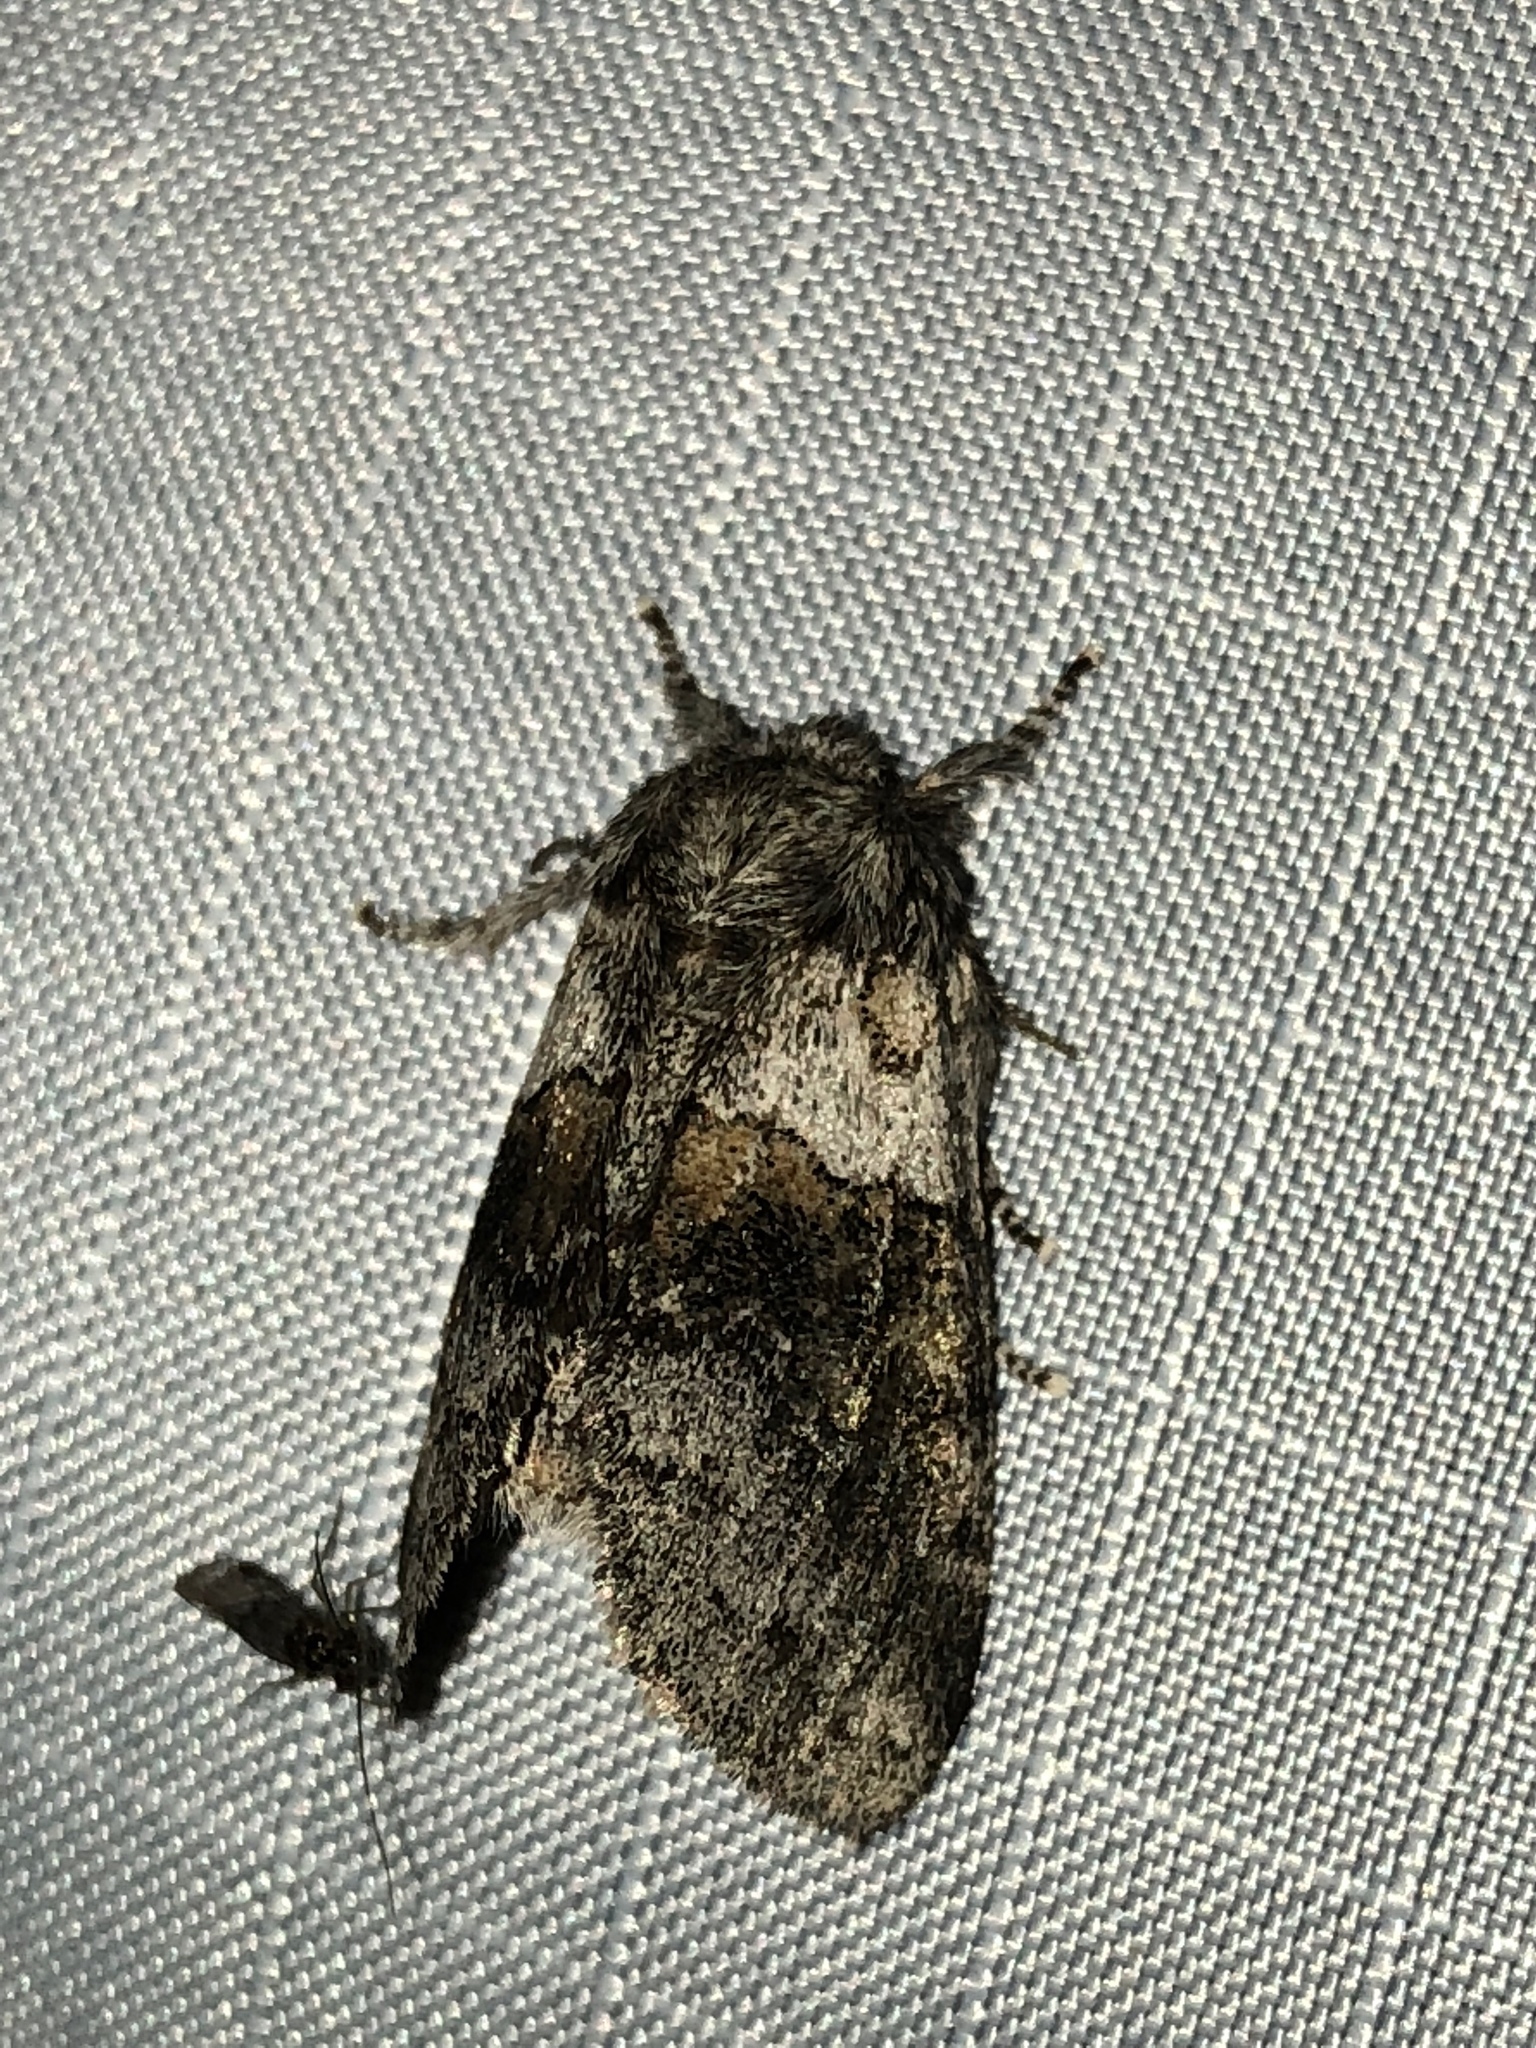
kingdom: Animalia
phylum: Arthropoda
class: Insecta
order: Lepidoptera
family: Notodontidae
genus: Gluphisia
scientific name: Gluphisia septentrionis
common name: Common gluphisia
